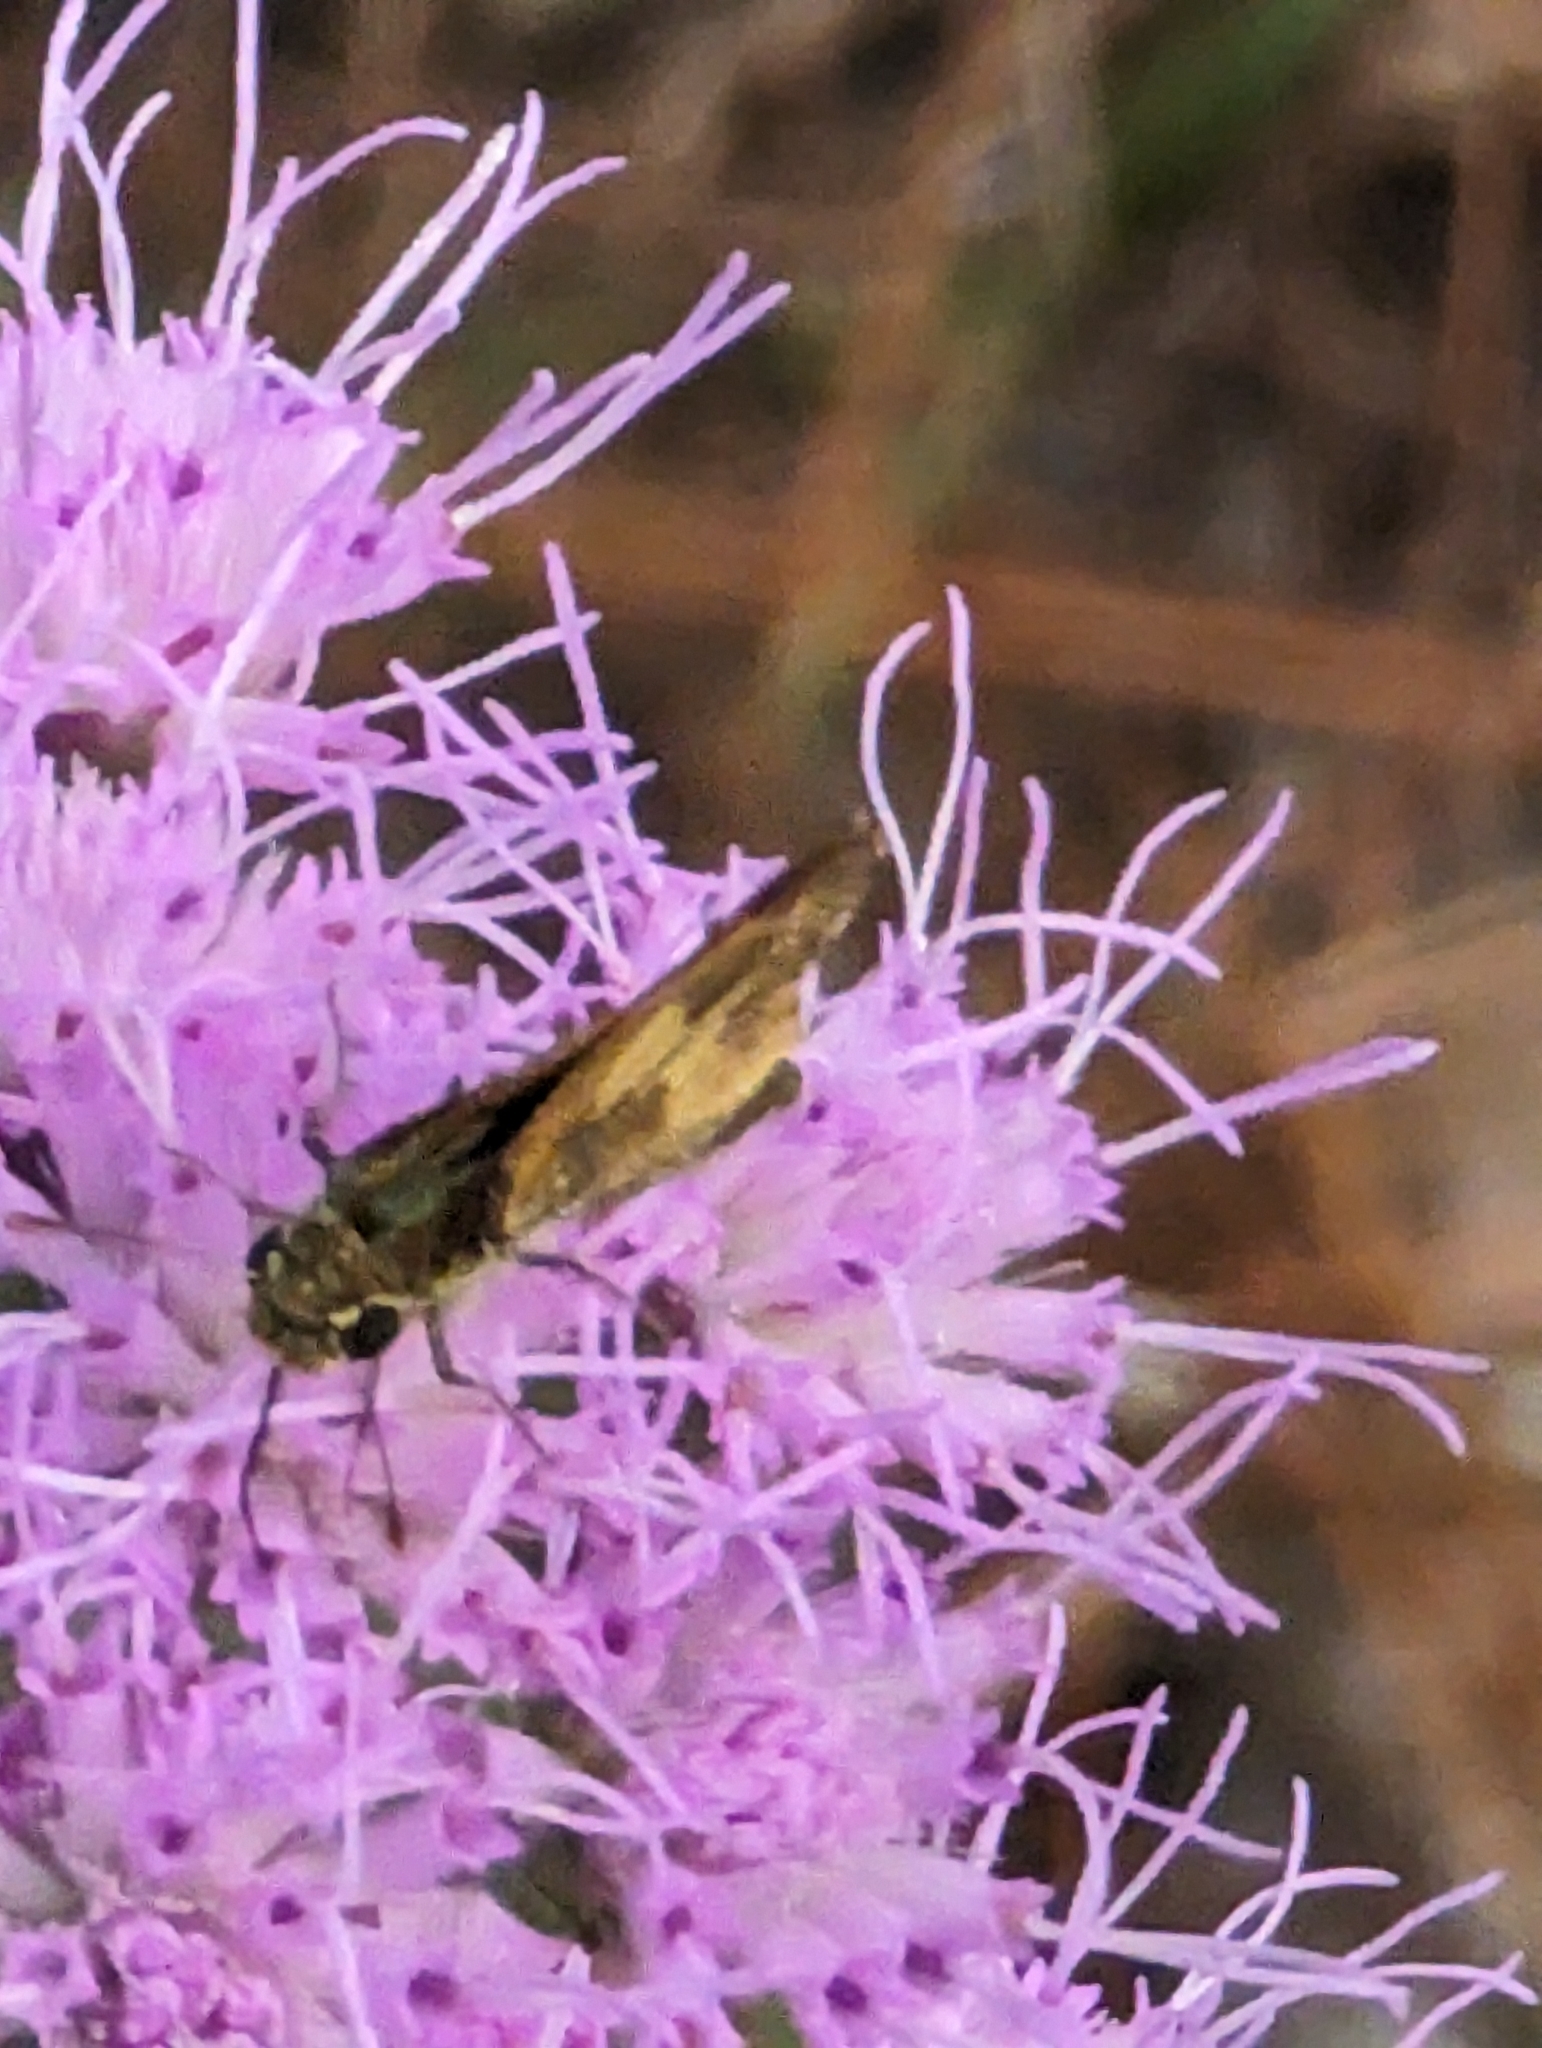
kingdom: Animalia
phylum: Arthropoda
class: Insecta
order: Lepidoptera
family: Hesperiidae
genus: Polites
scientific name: Polites vibex
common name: Whirlabout
